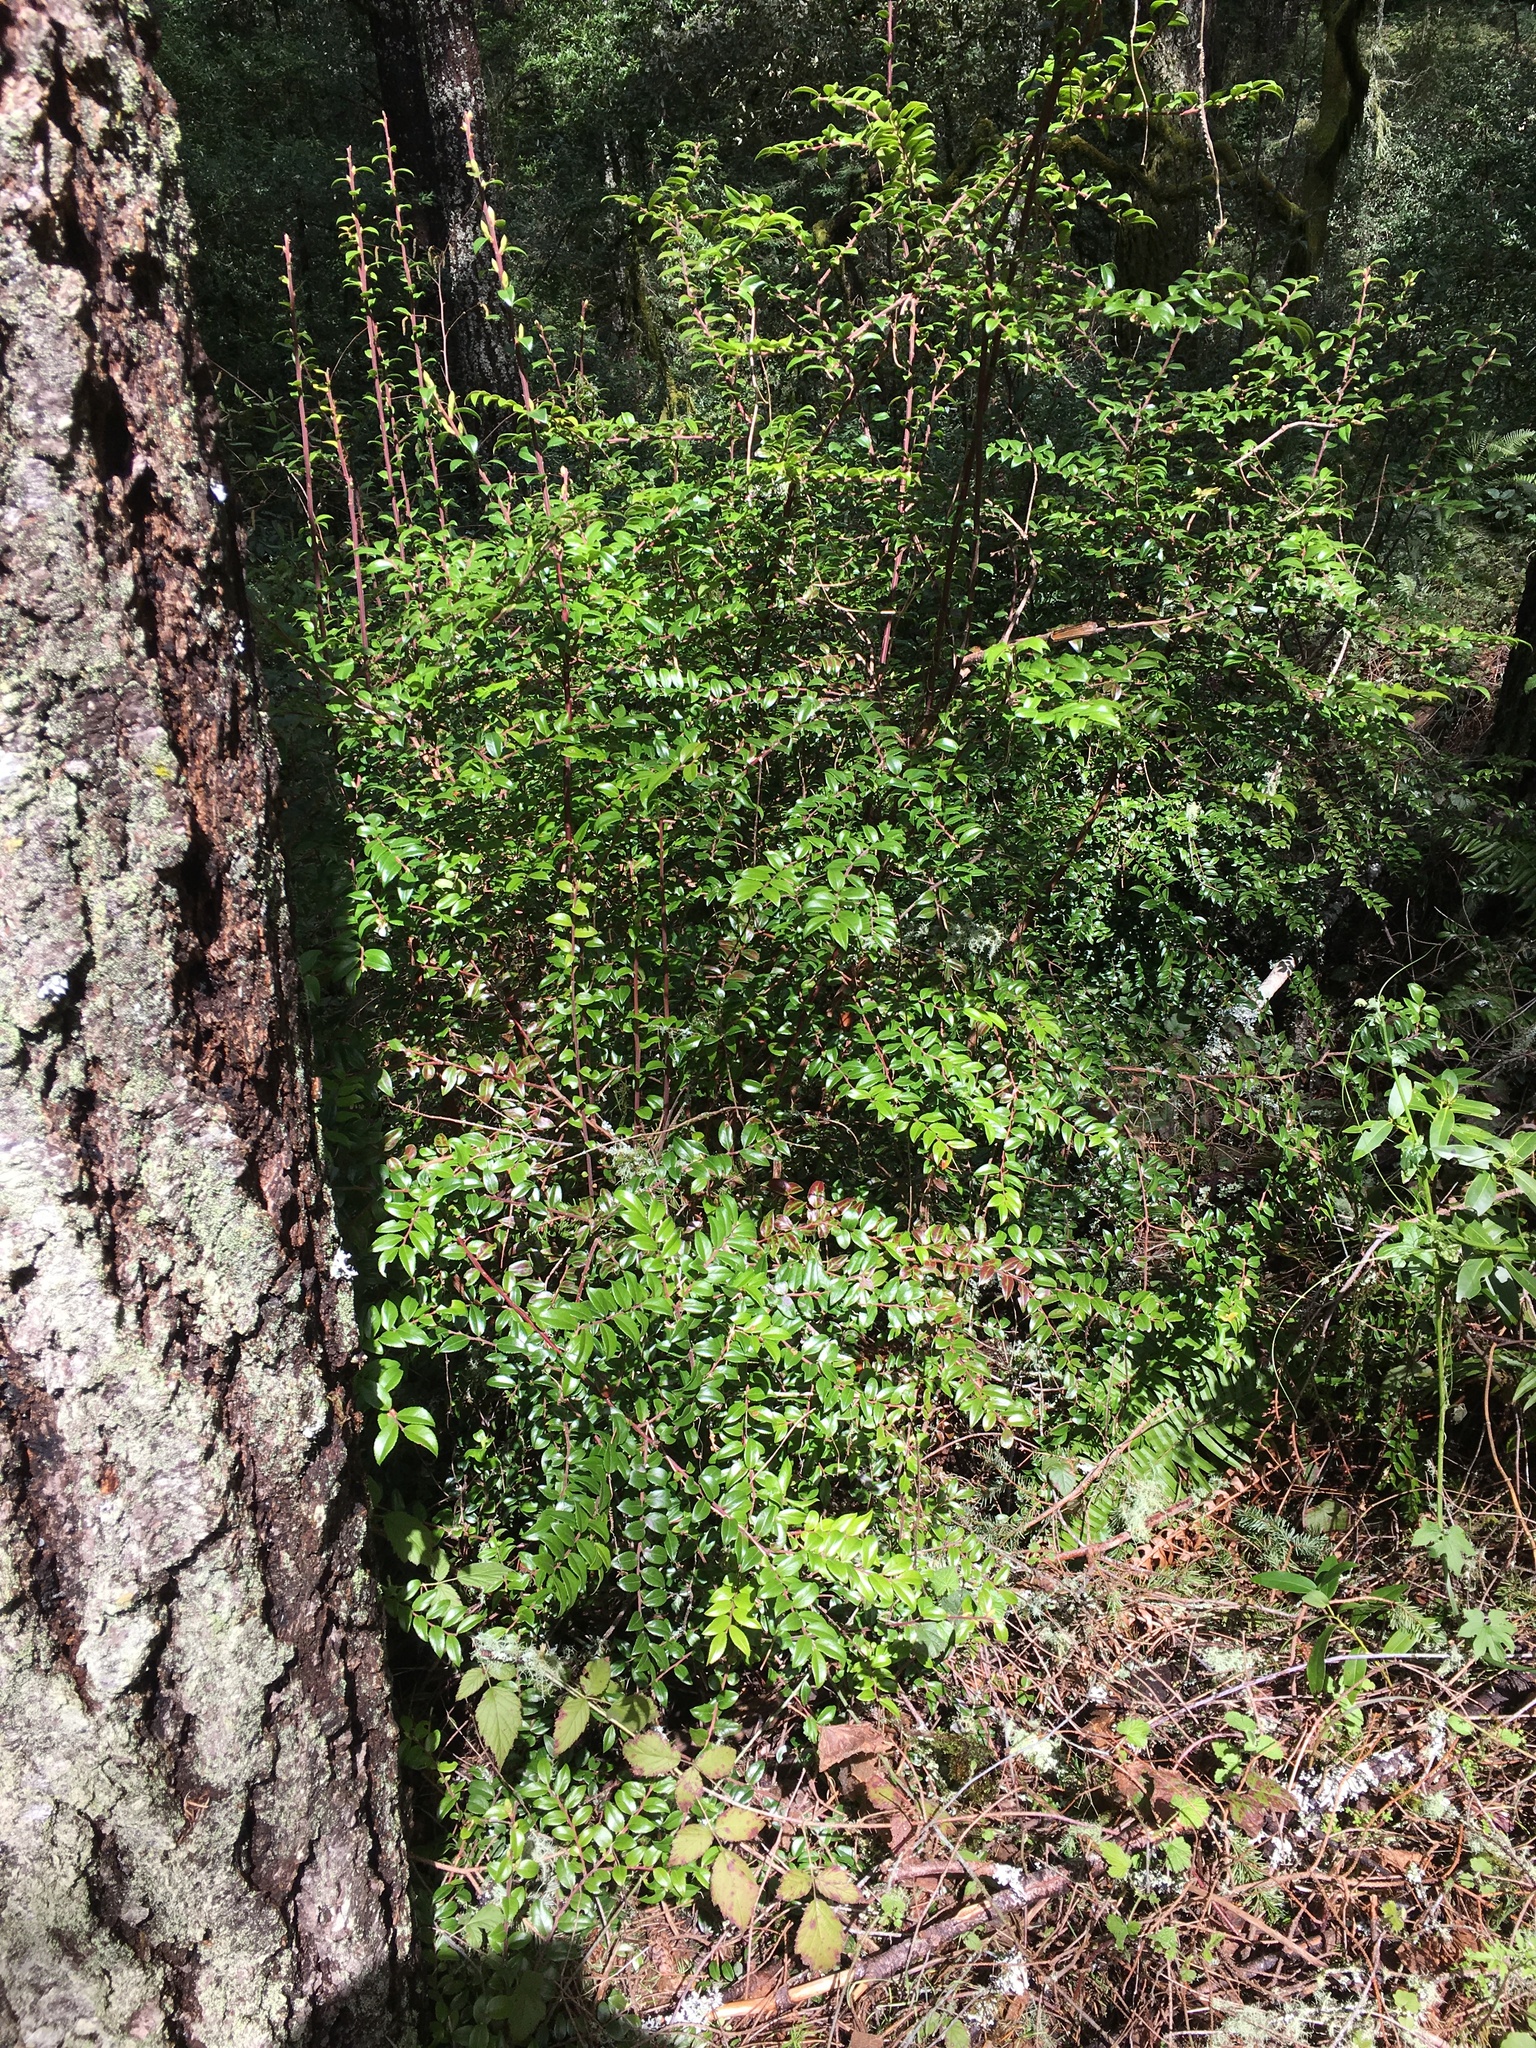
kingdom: Plantae
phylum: Tracheophyta
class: Magnoliopsida
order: Ericales
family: Ericaceae
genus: Vaccinium
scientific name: Vaccinium ovatum
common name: California-huckleberry
